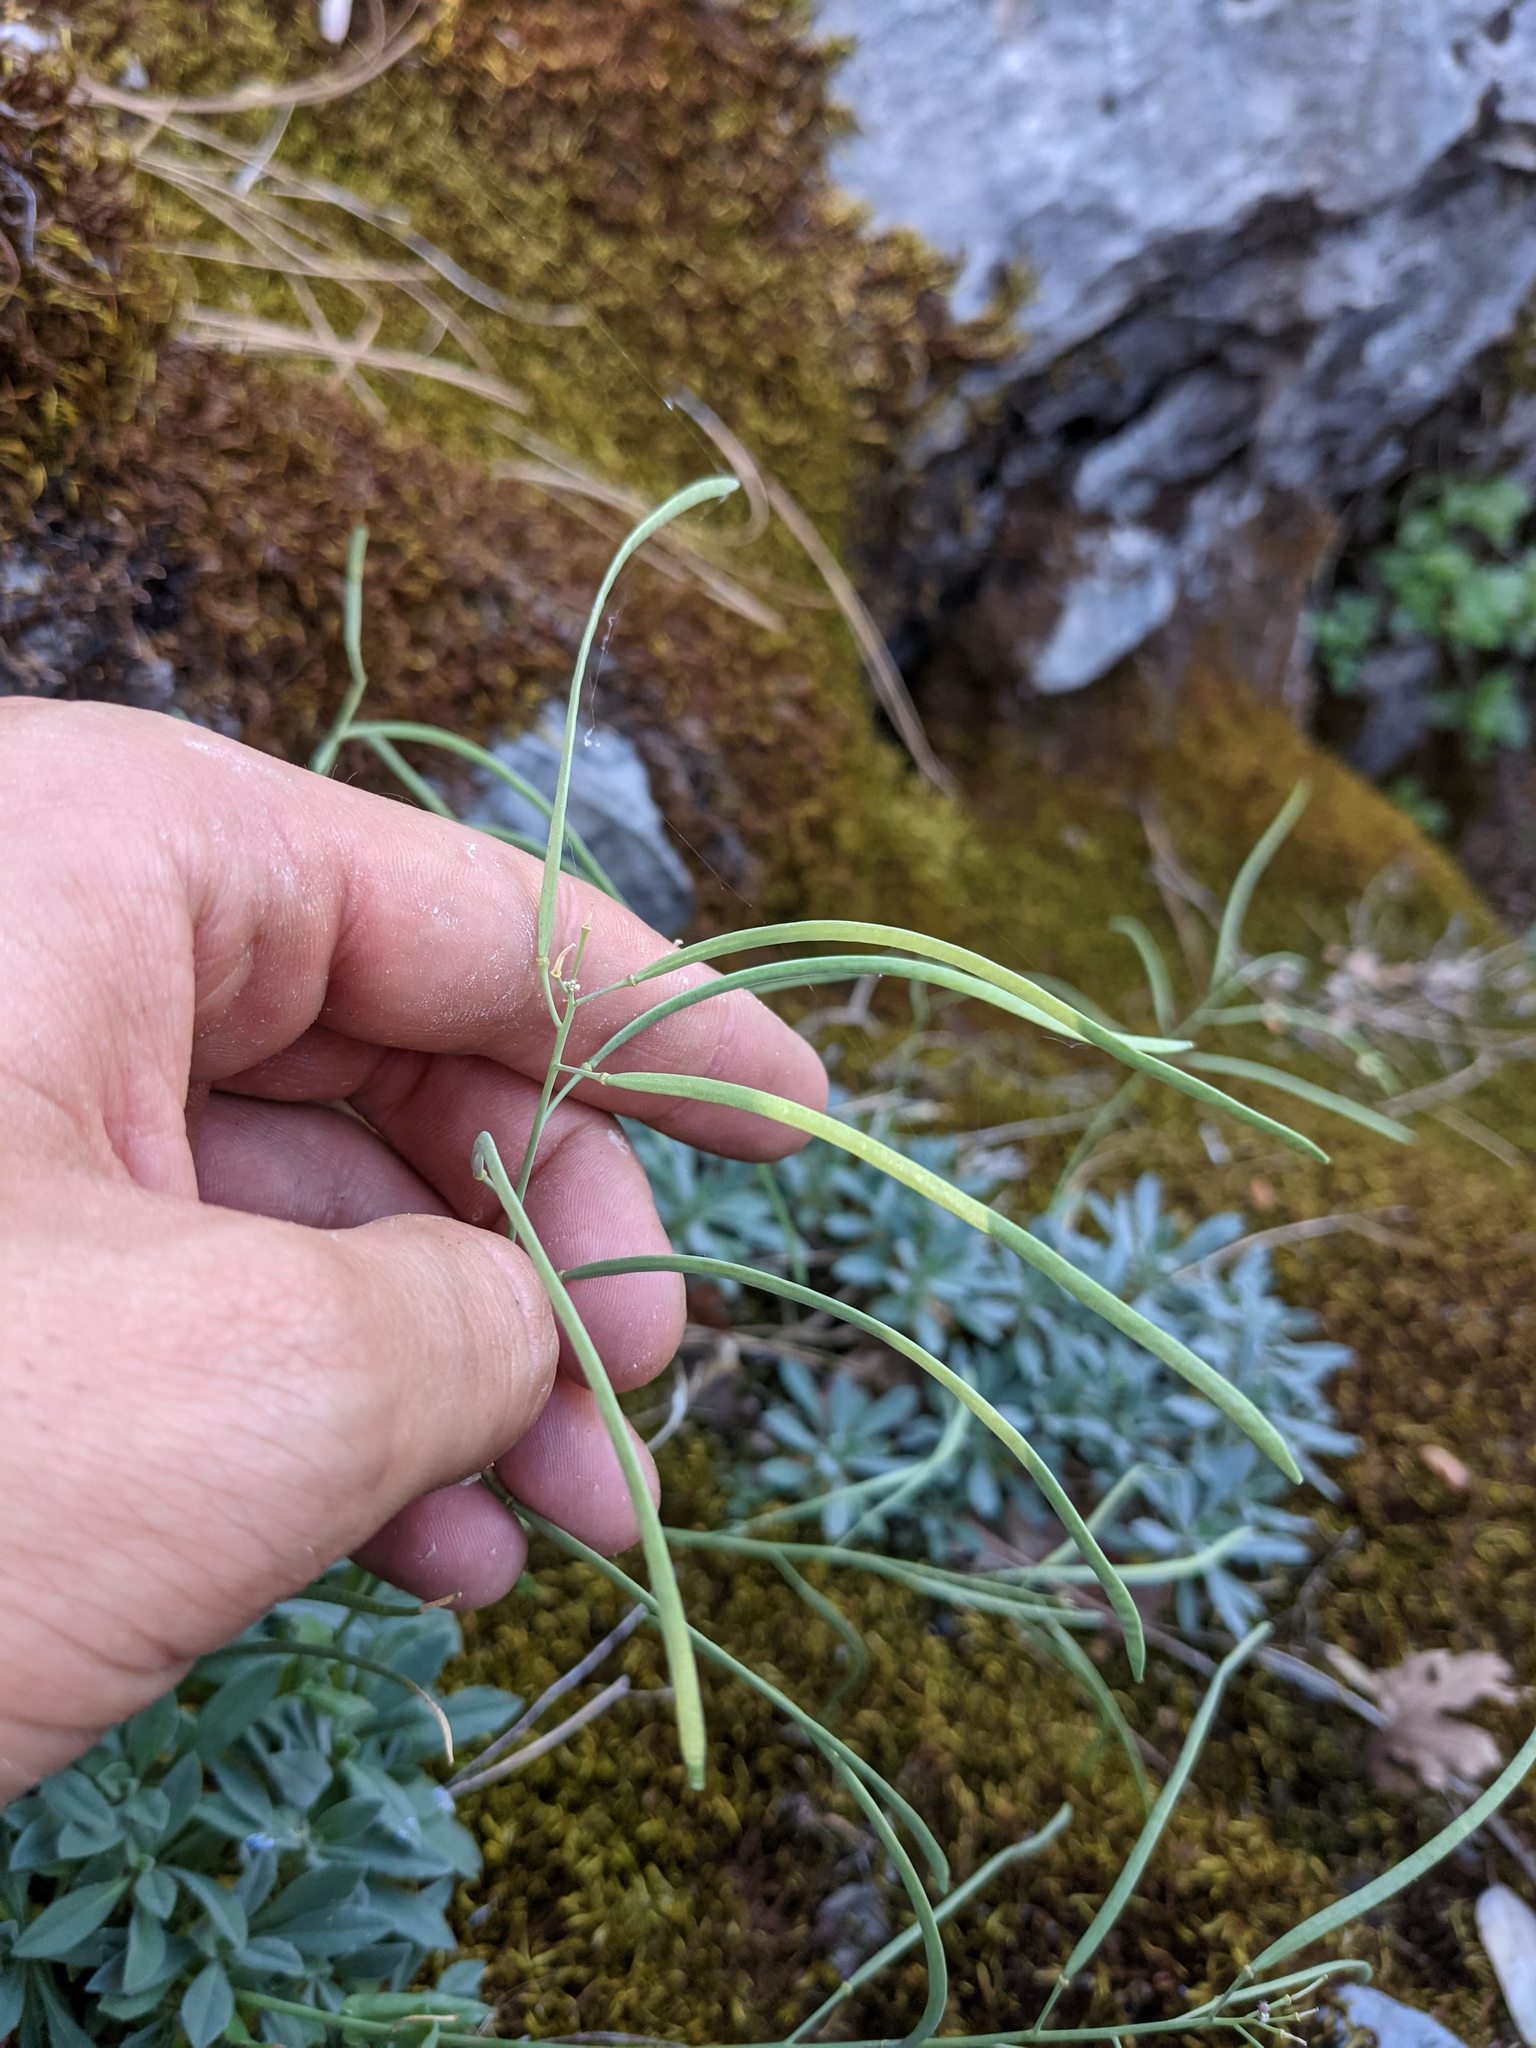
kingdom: Plantae
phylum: Tracheophyta
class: Magnoliopsida
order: Brassicales
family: Brassicaceae
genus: Boechera
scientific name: Boechera breweri
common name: Brewer's rockcress
